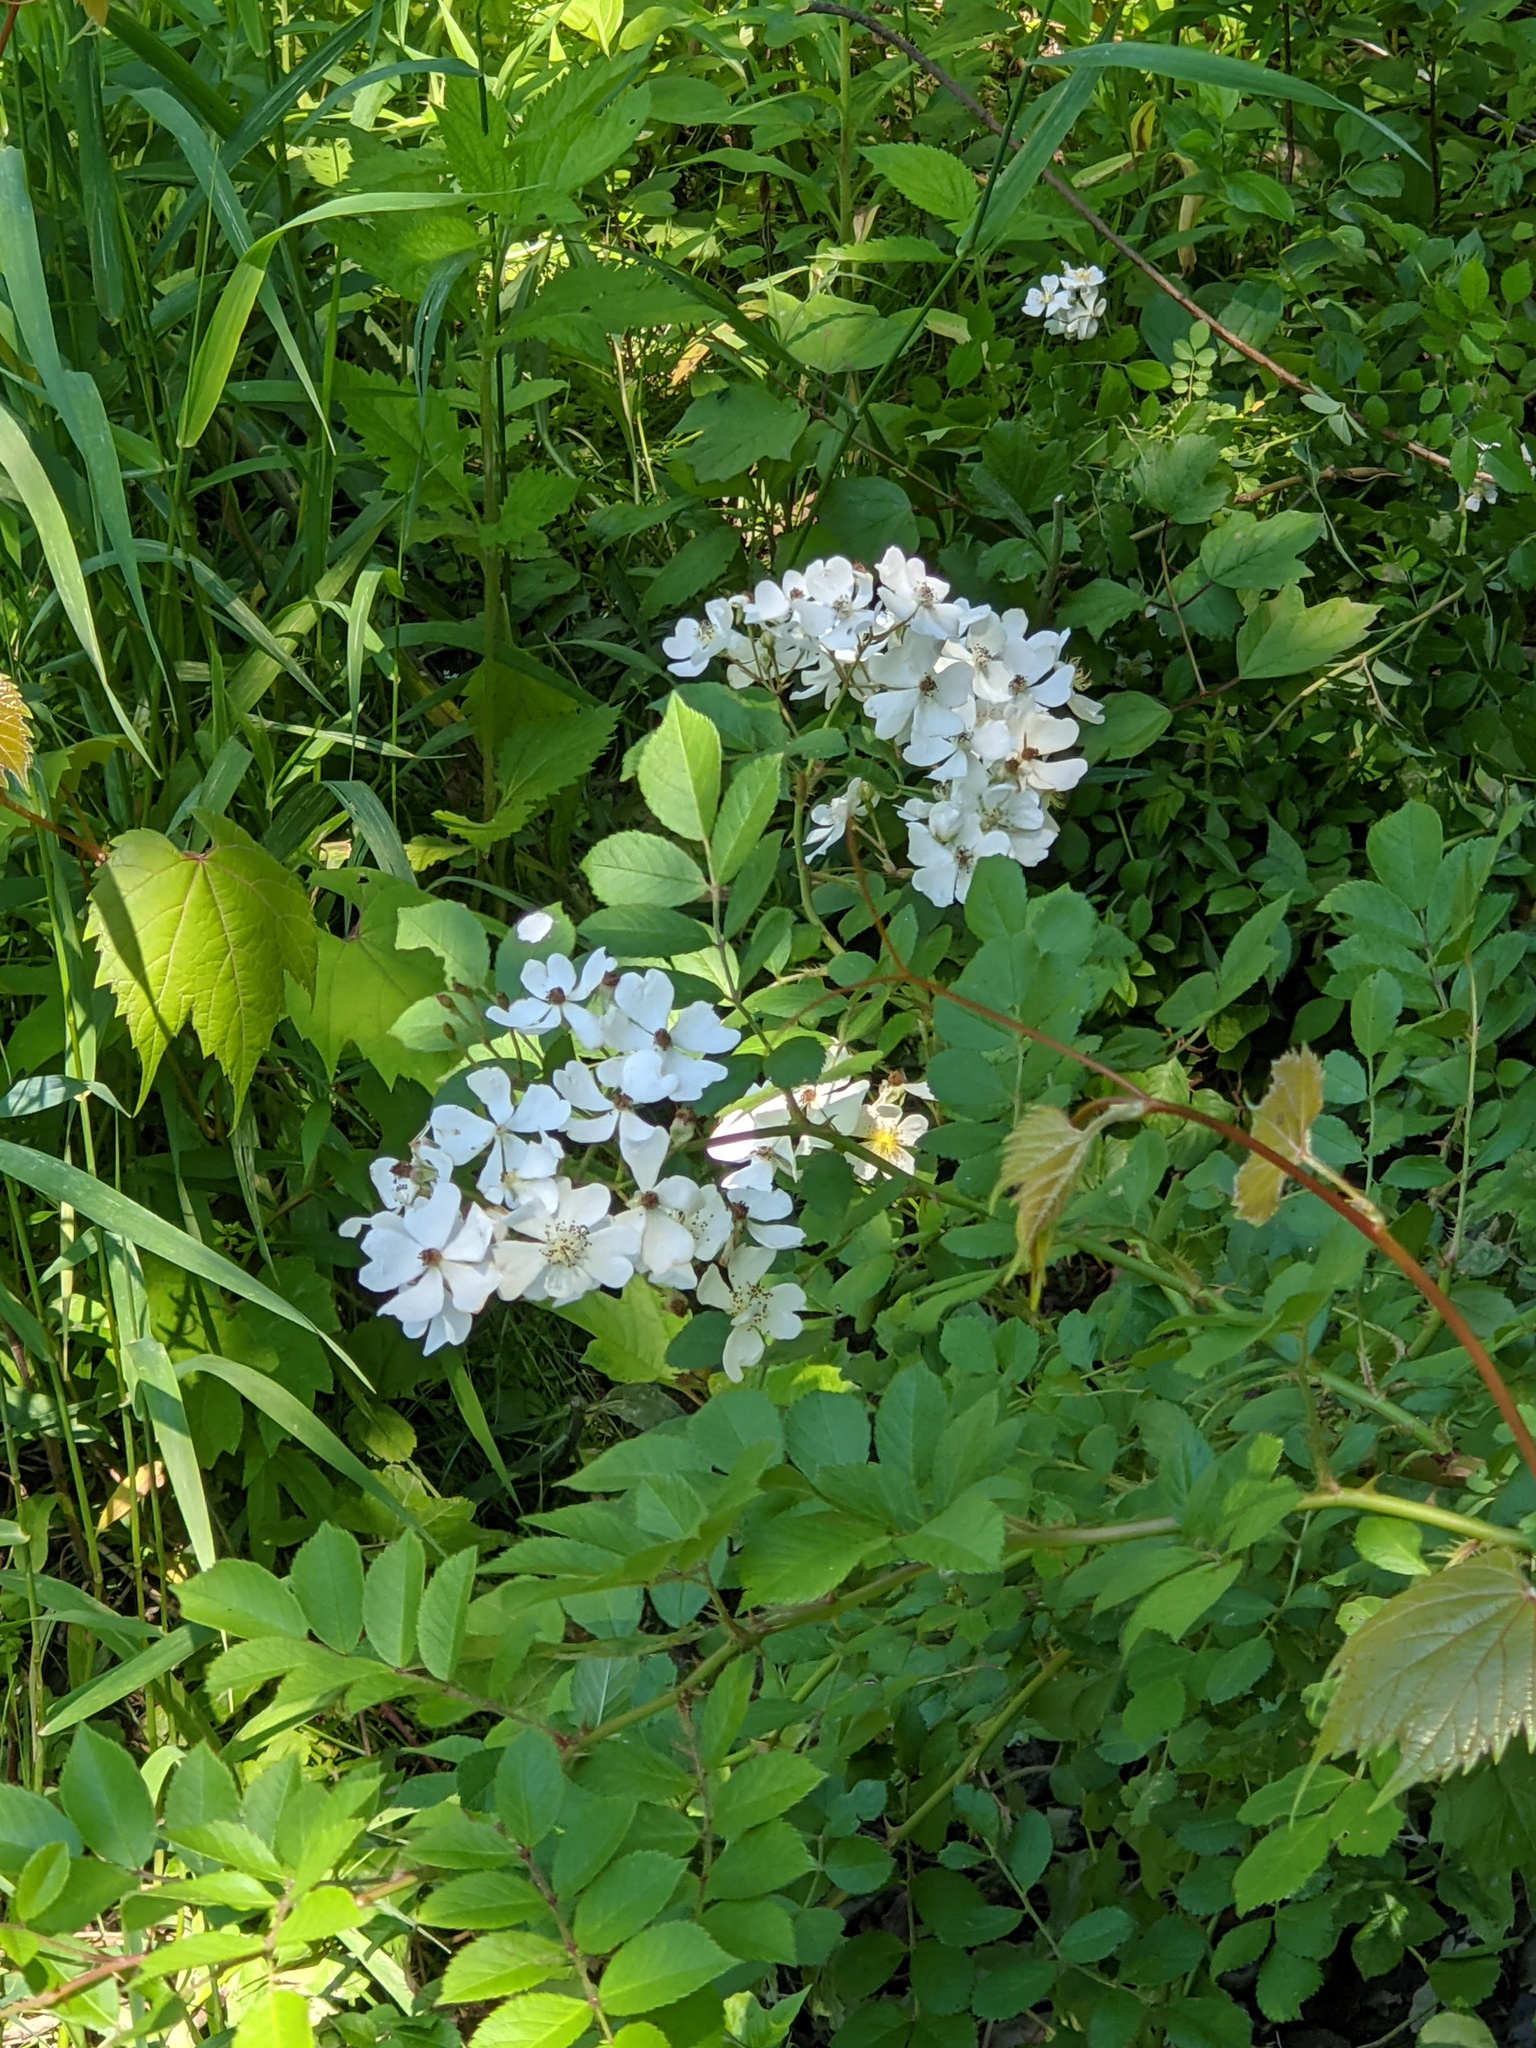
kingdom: Plantae
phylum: Tracheophyta
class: Magnoliopsida
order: Rosales
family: Rosaceae
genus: Rosa
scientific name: Rosa multiflora
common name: Multiflora rose
